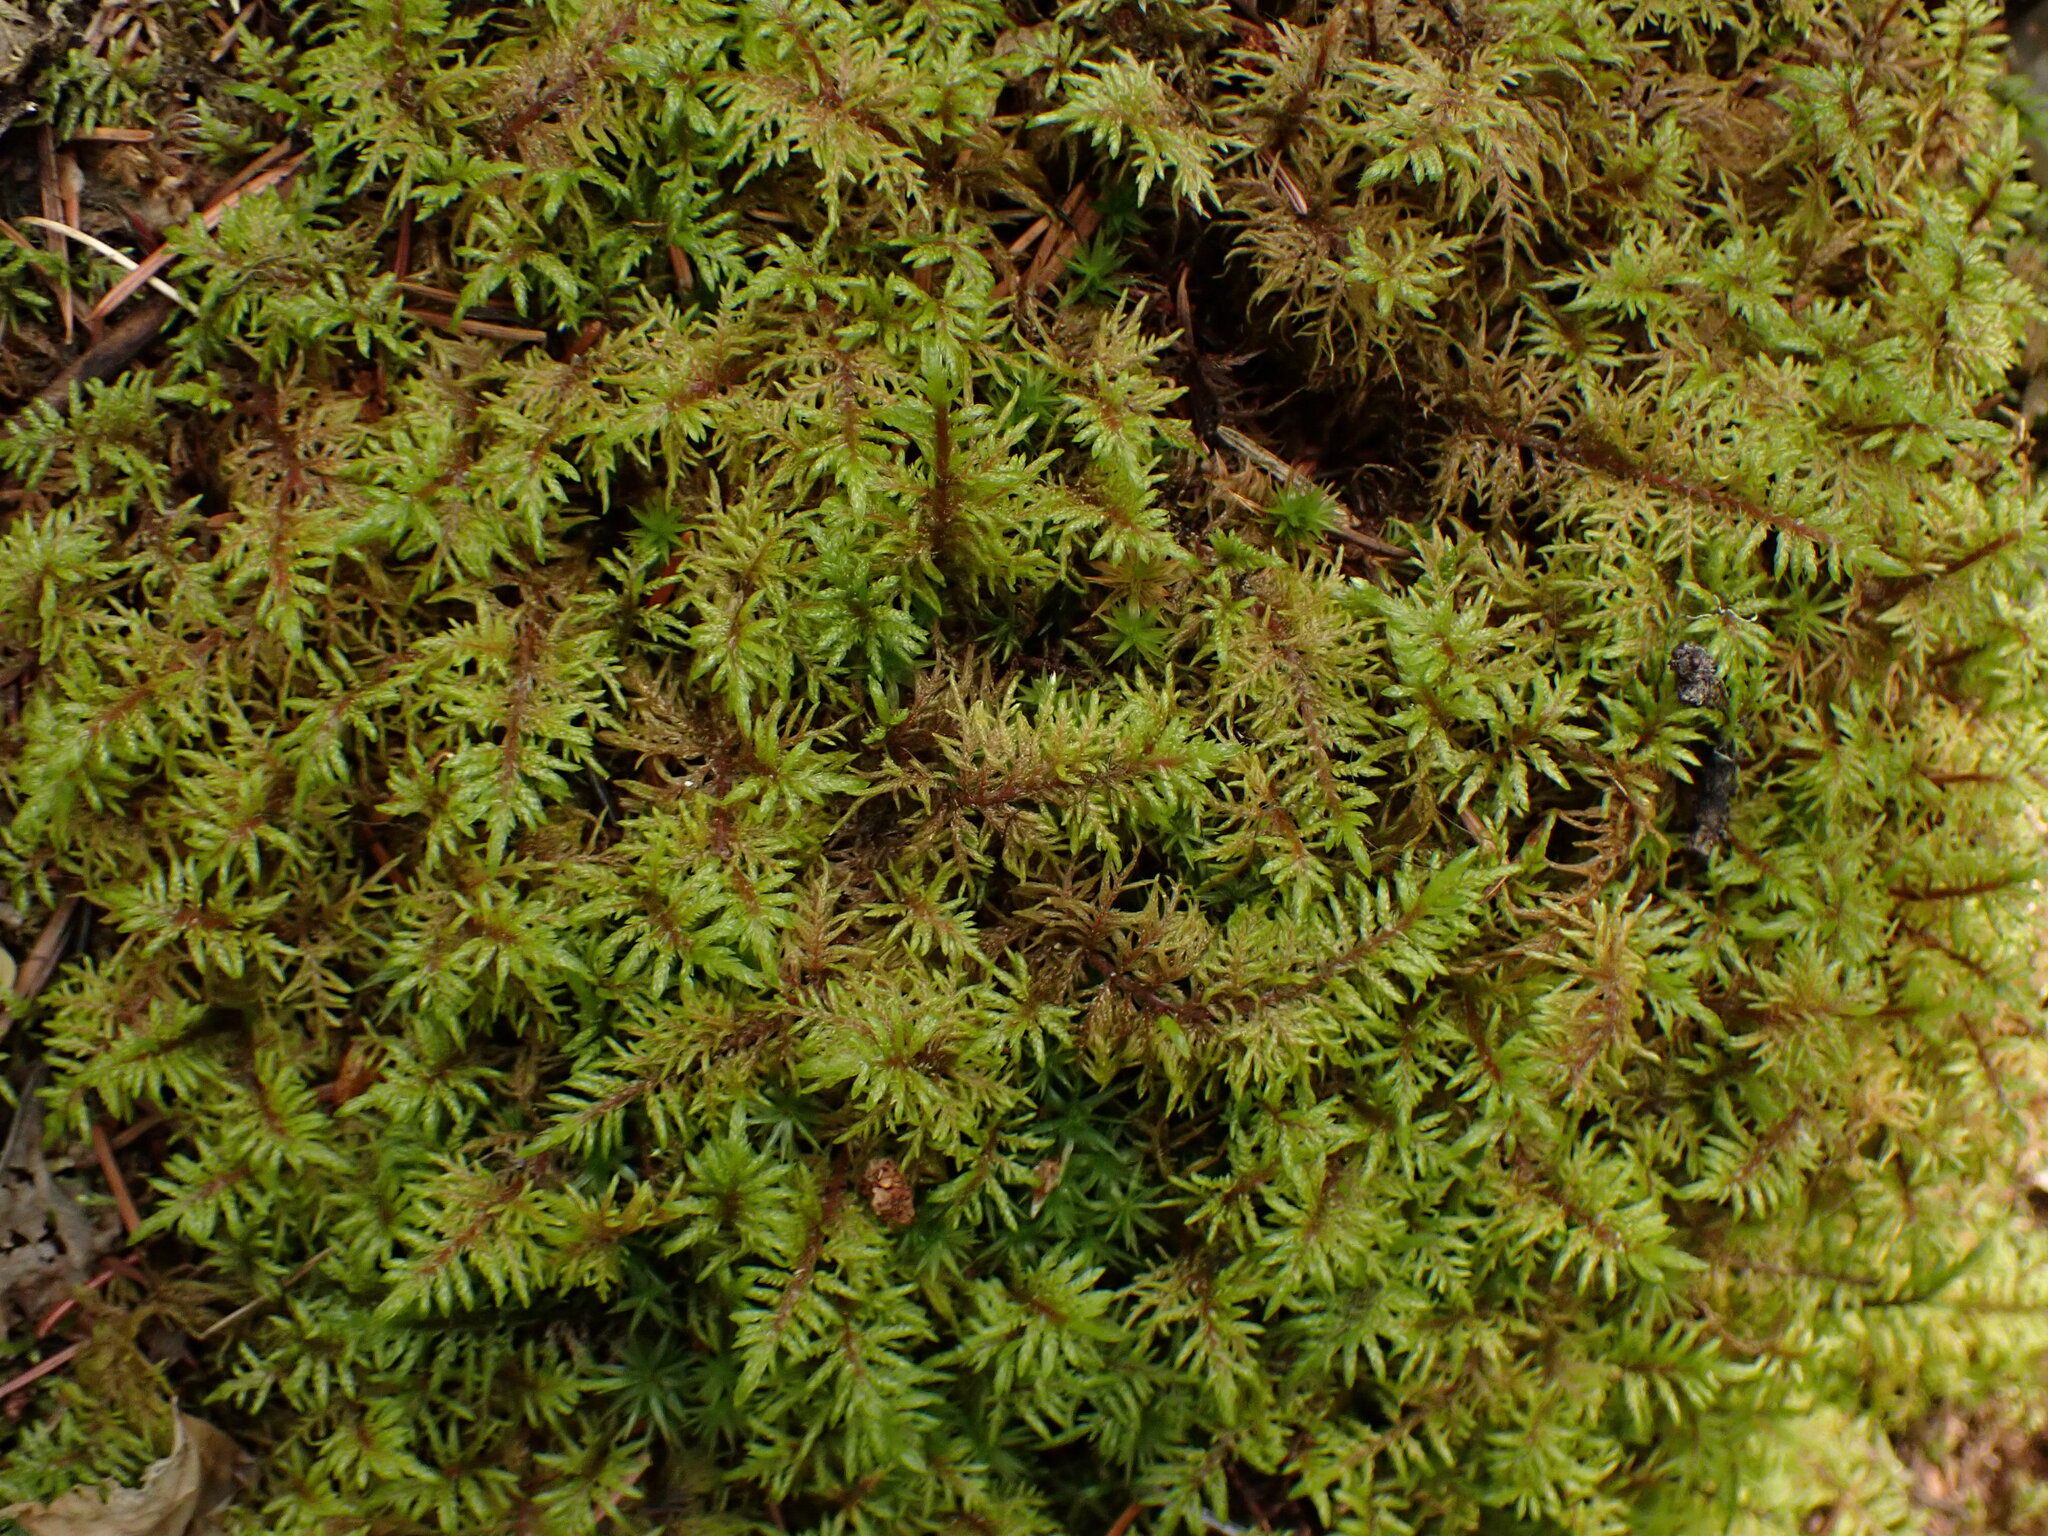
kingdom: Plantae
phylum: Bryophyta
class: Bryopsida
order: Hypnales
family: Hylocomiaceae
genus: Hylocomium
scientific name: Hylocomium splendens
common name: Stairstep moss
